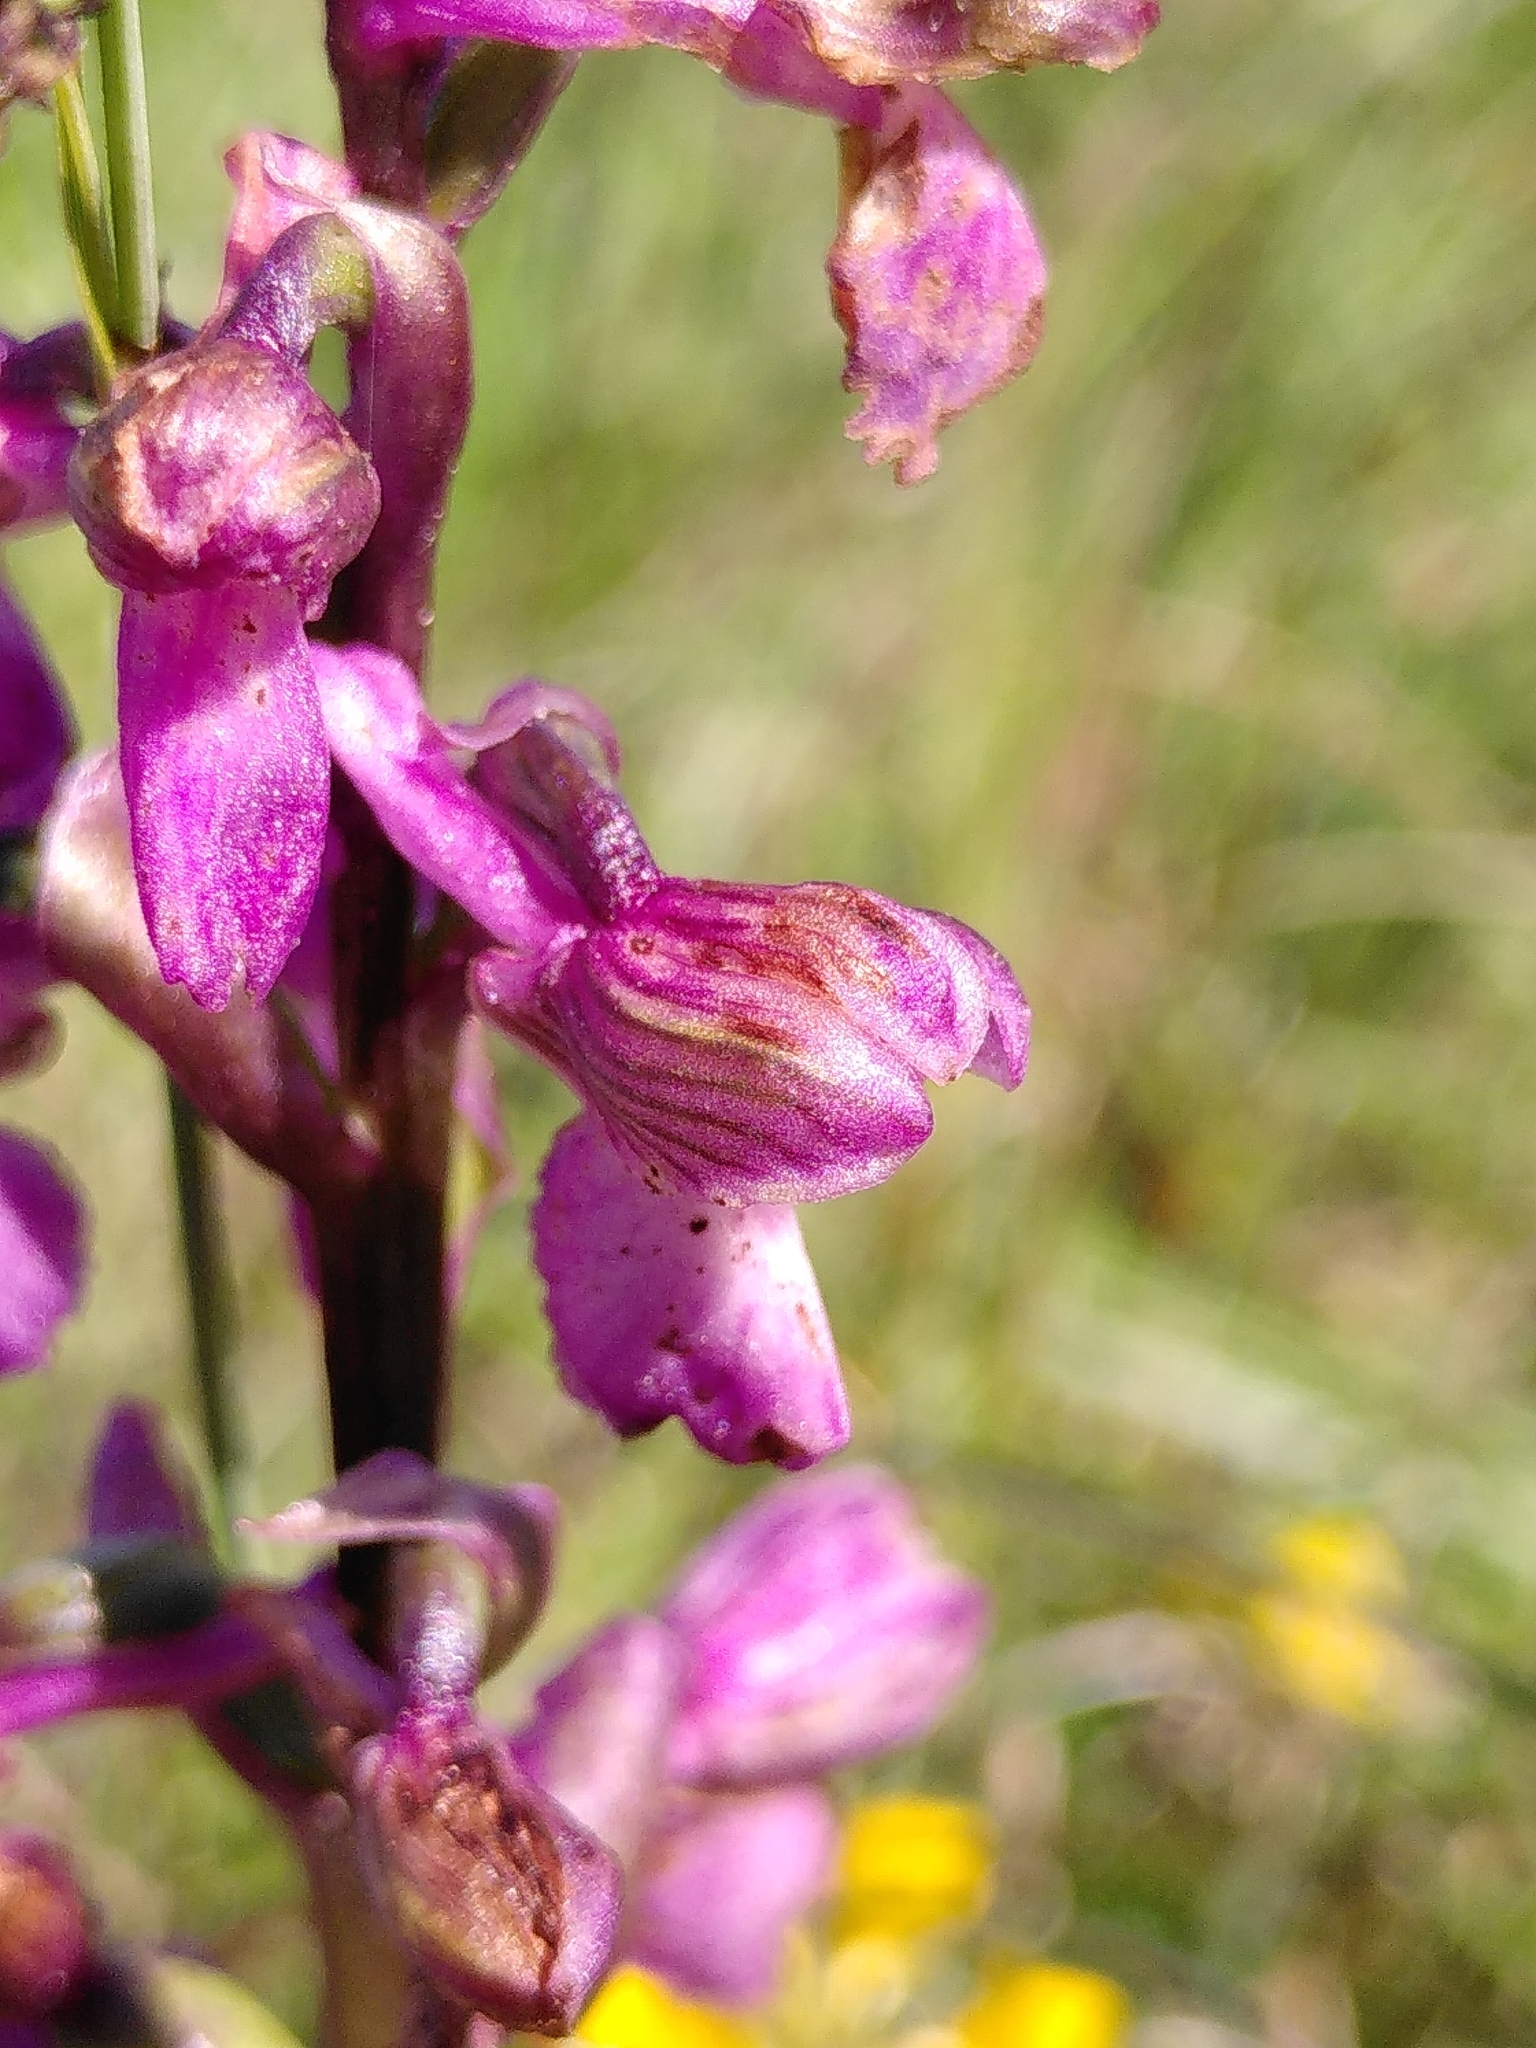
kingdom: Plantae
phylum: Tracheophyta
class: Liliopsida
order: Asparagales
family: Orchidaceae
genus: Anacamptis
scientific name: Anacamptis morio
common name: Green-winged orchid
